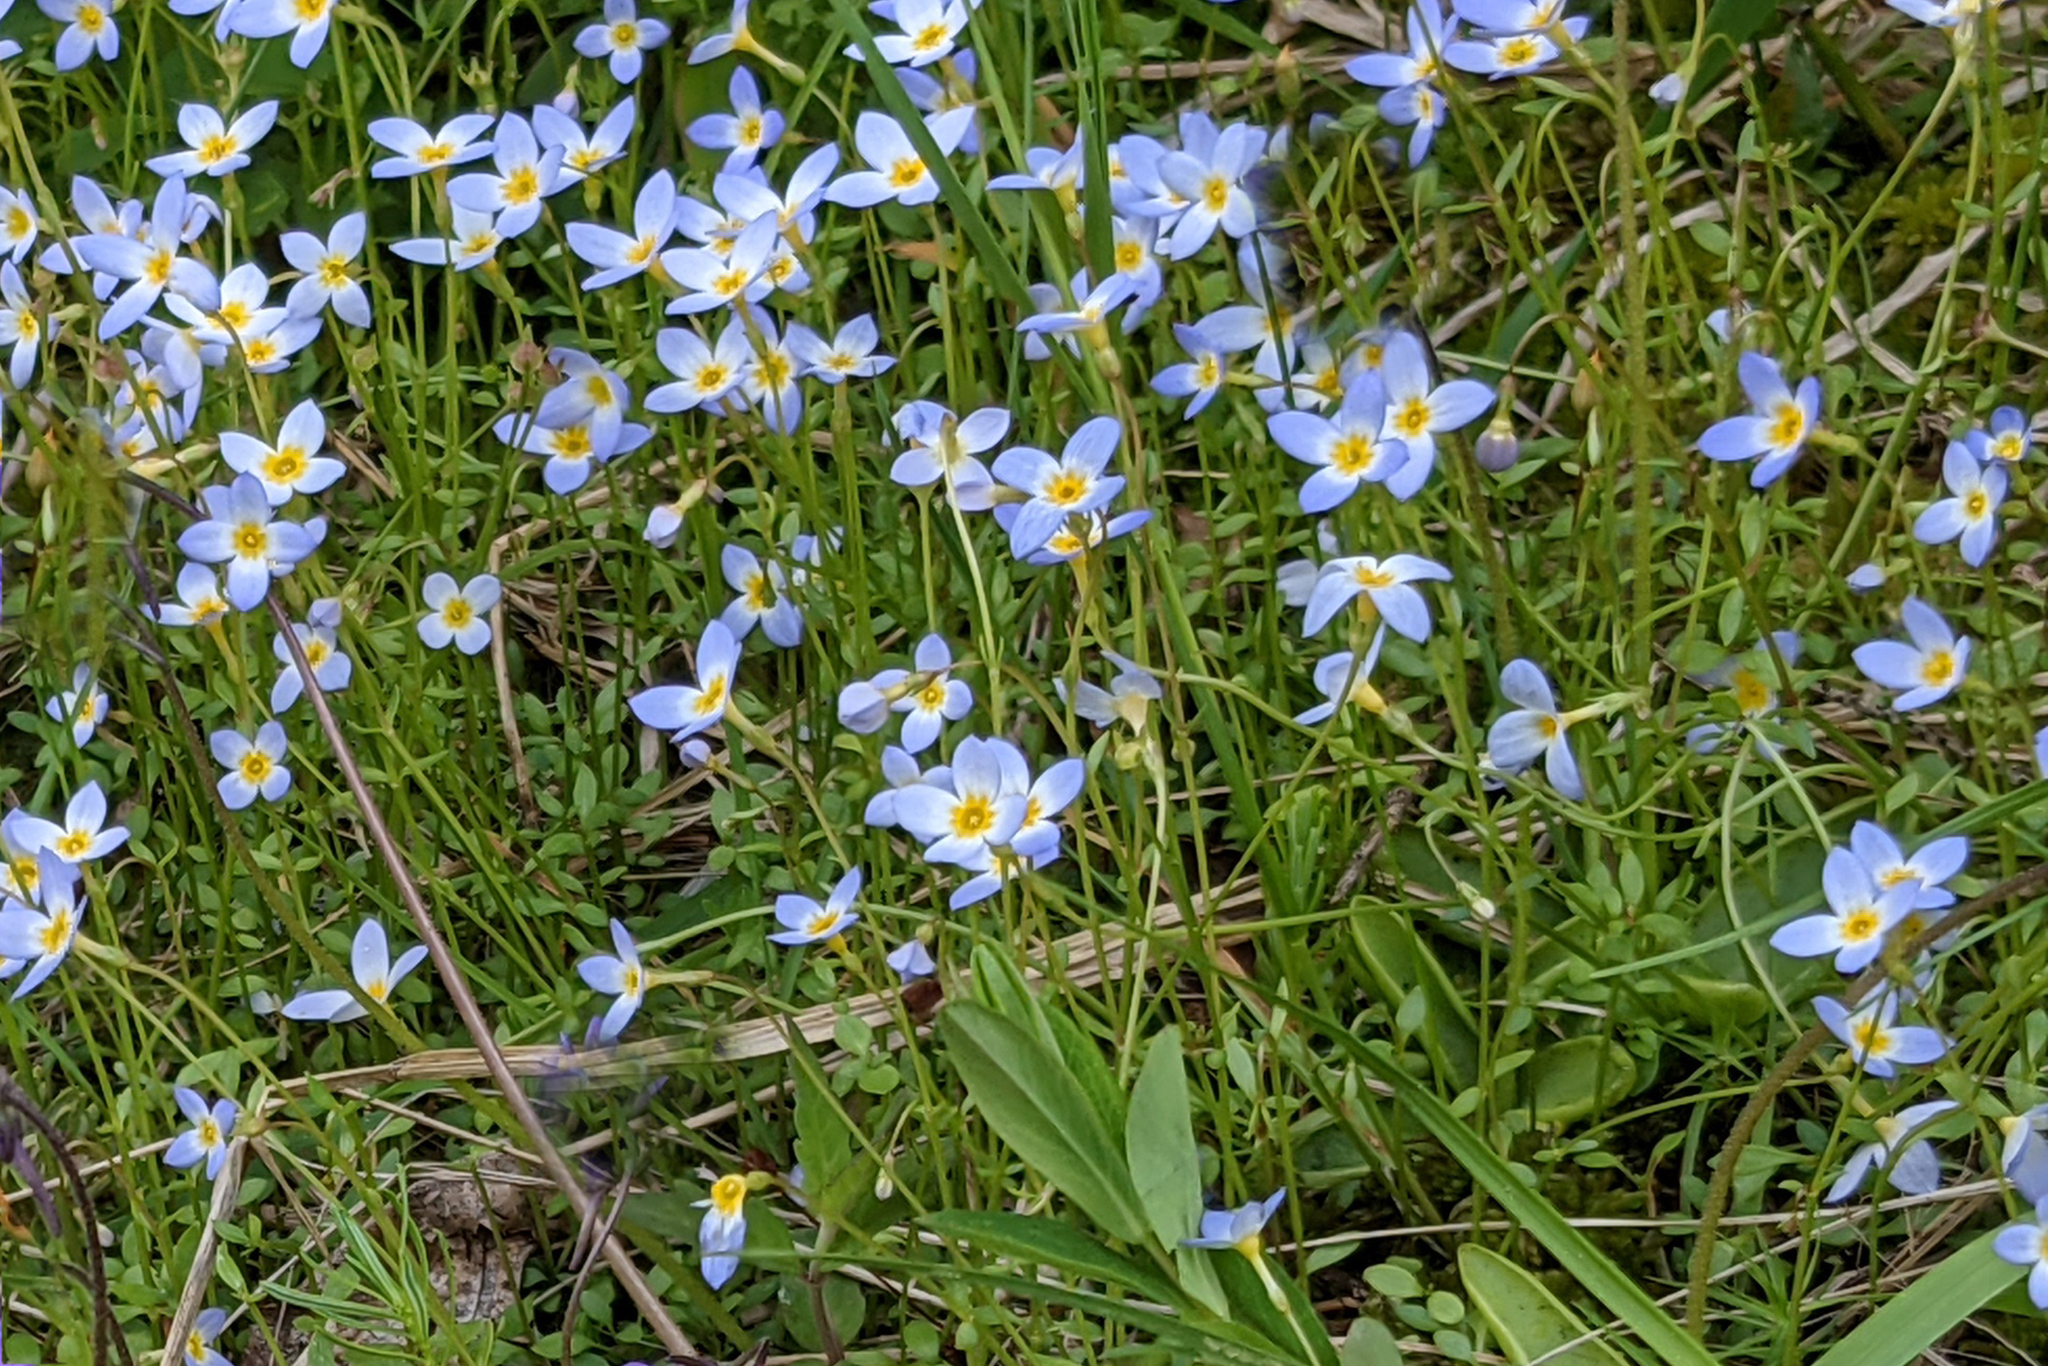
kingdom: Plantae
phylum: Tracheophyta
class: Magnoliopsida
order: Gentianales
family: Rubiaceae
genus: Houstonia
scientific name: Houstonia caerulea
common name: Bluets
